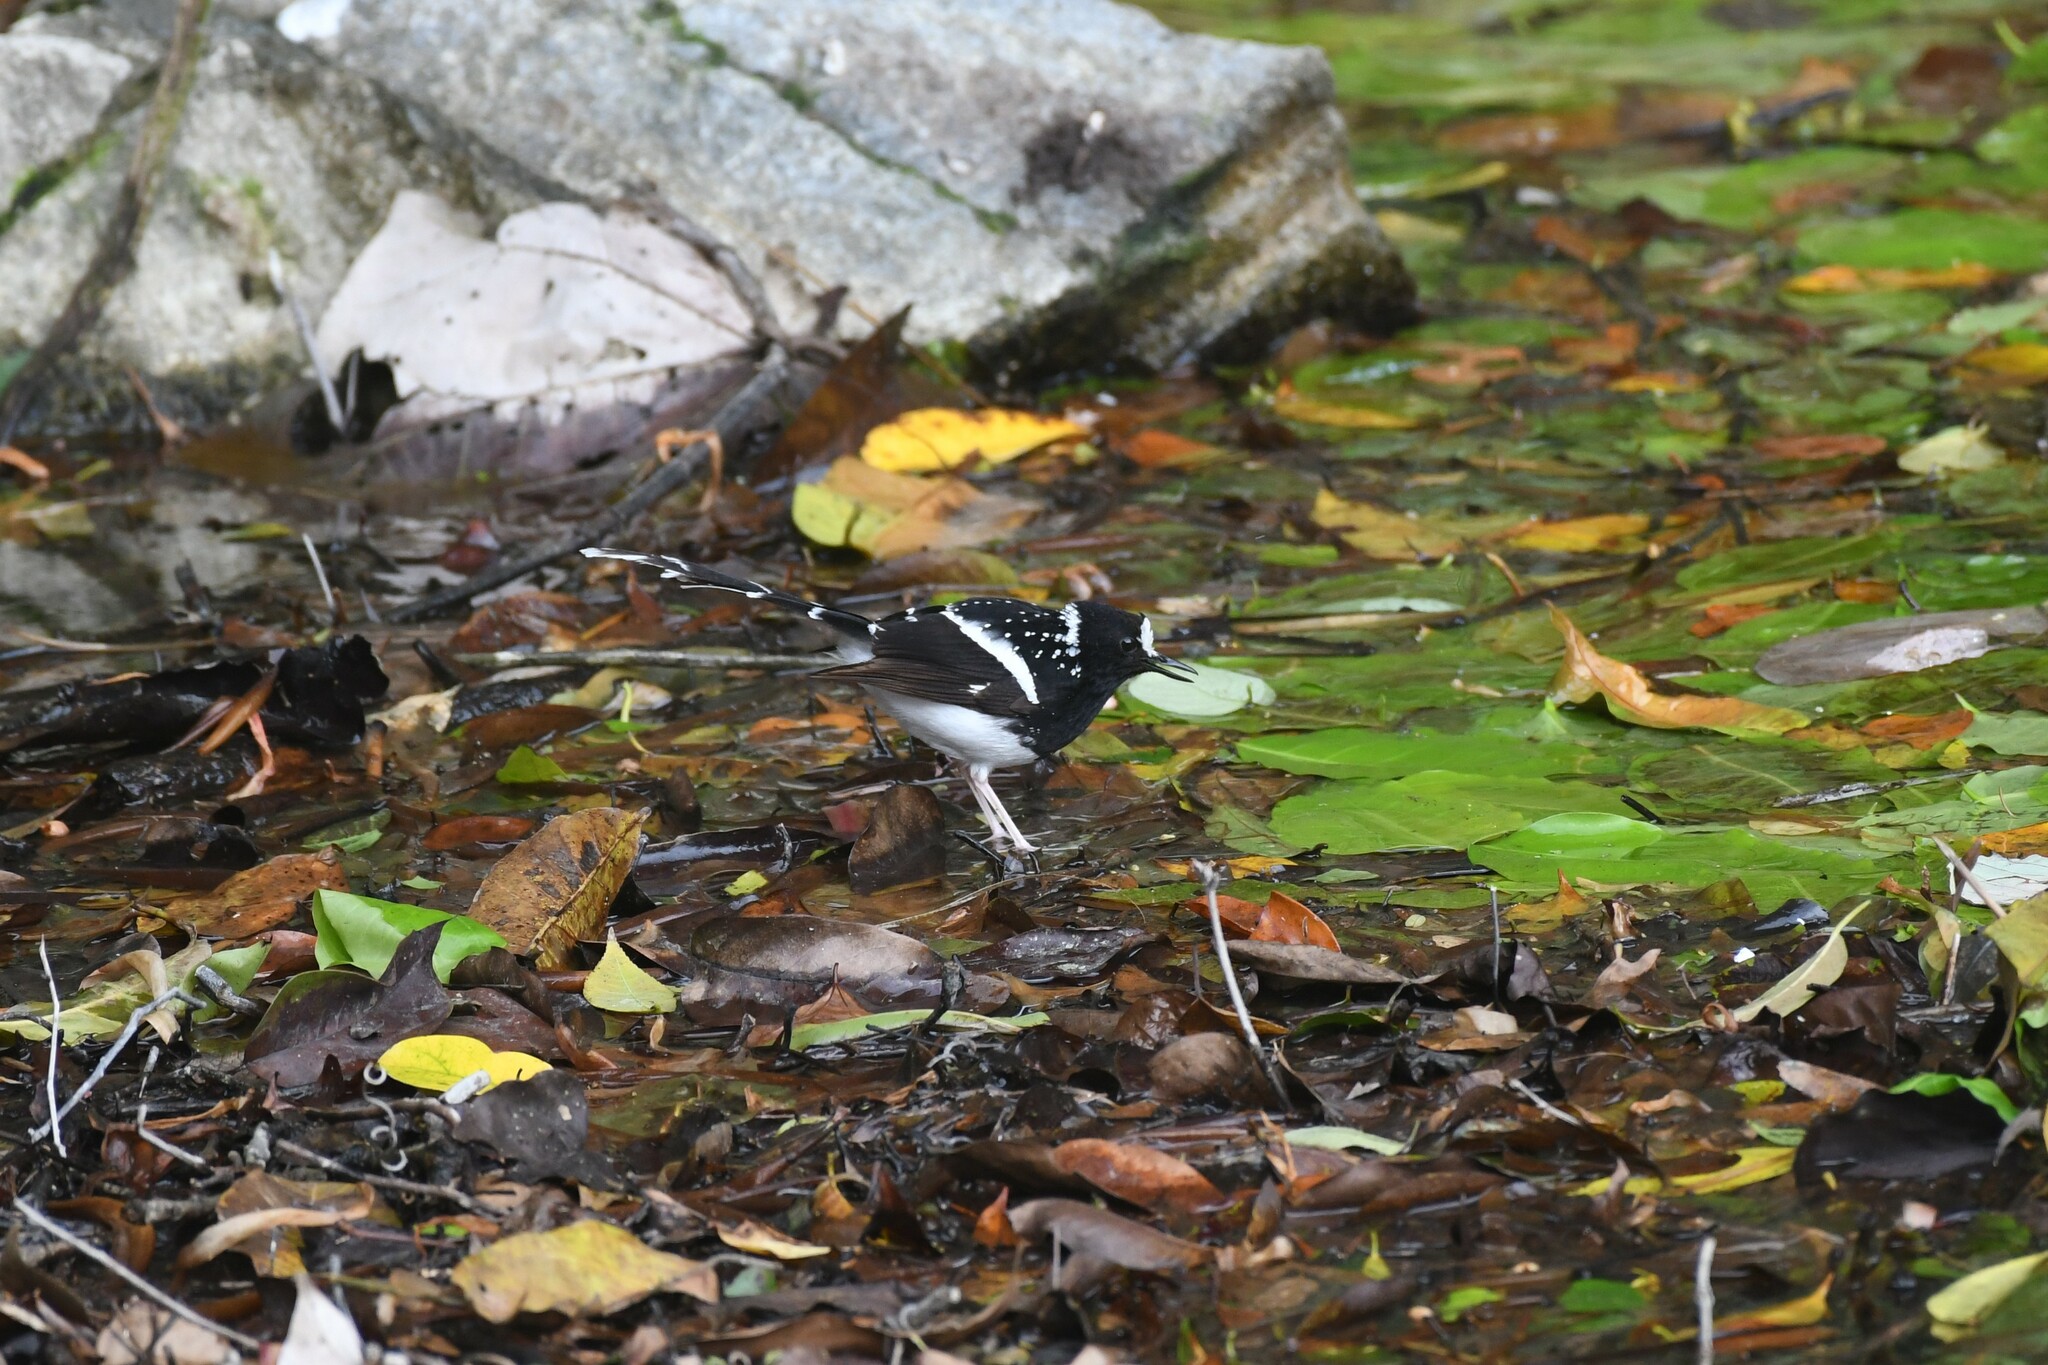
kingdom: Animalia
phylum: Chordata
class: Aves
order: Passeriformes
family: Muscicapidae
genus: Enicurus
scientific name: Enicurus maculatus
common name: Spotted forktail
